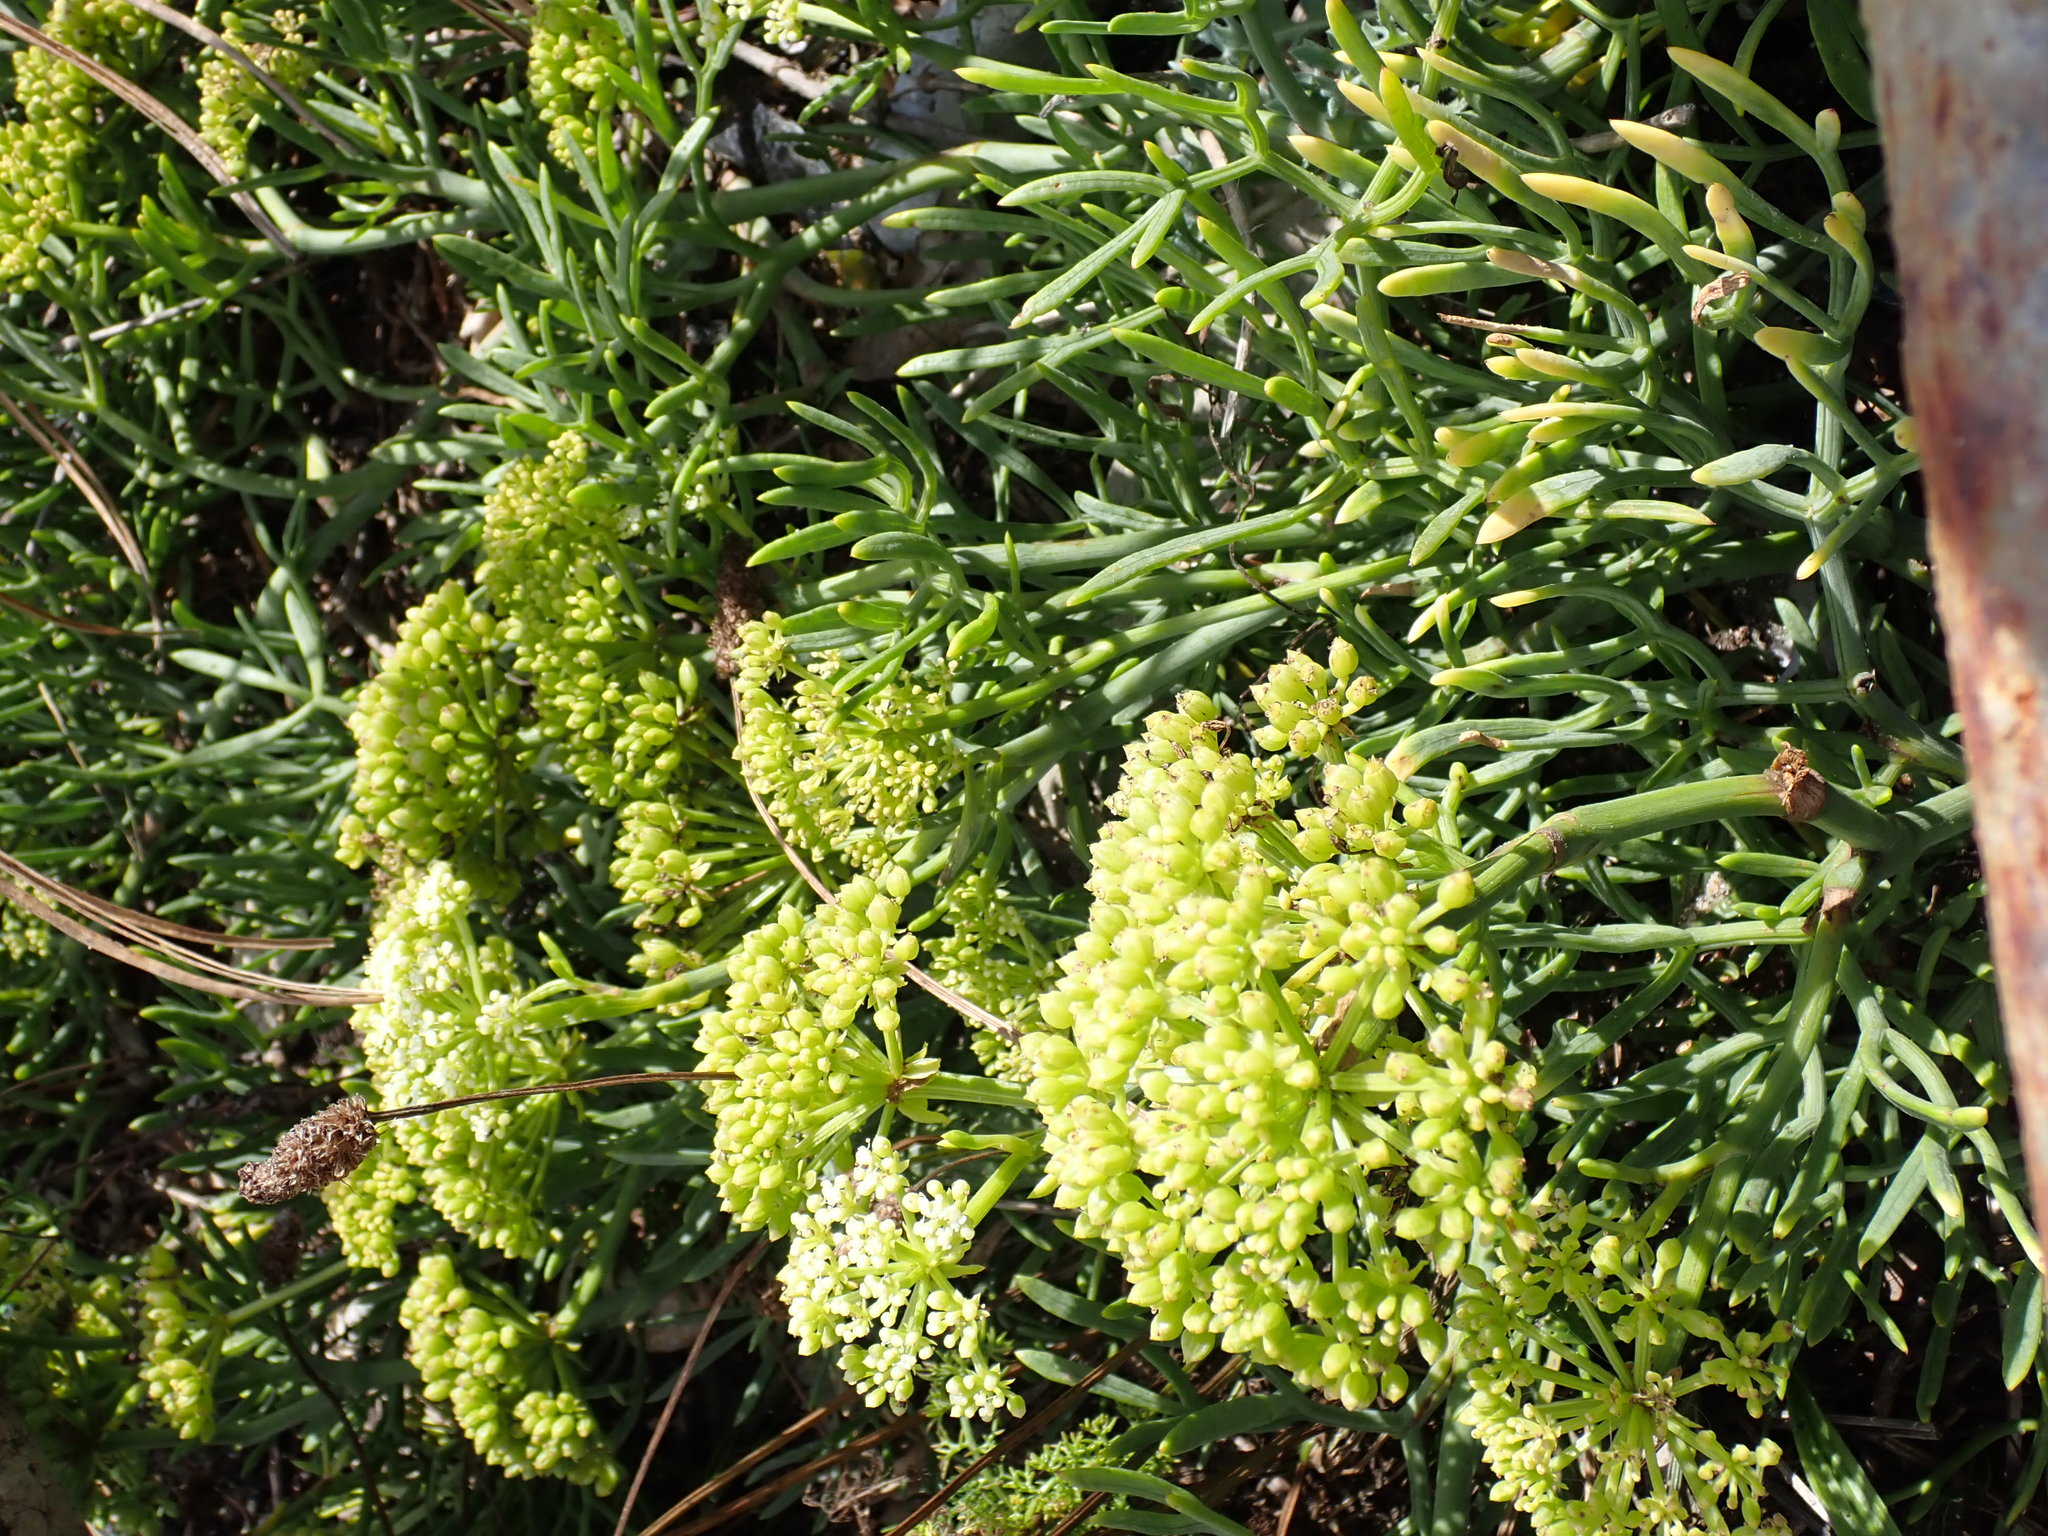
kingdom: Plantae
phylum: Tracheophyta
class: Magnoliopsida
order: Apiales
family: Apiaceae
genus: Crithmum
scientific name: Crithmum maritimum
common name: Rock samphire
